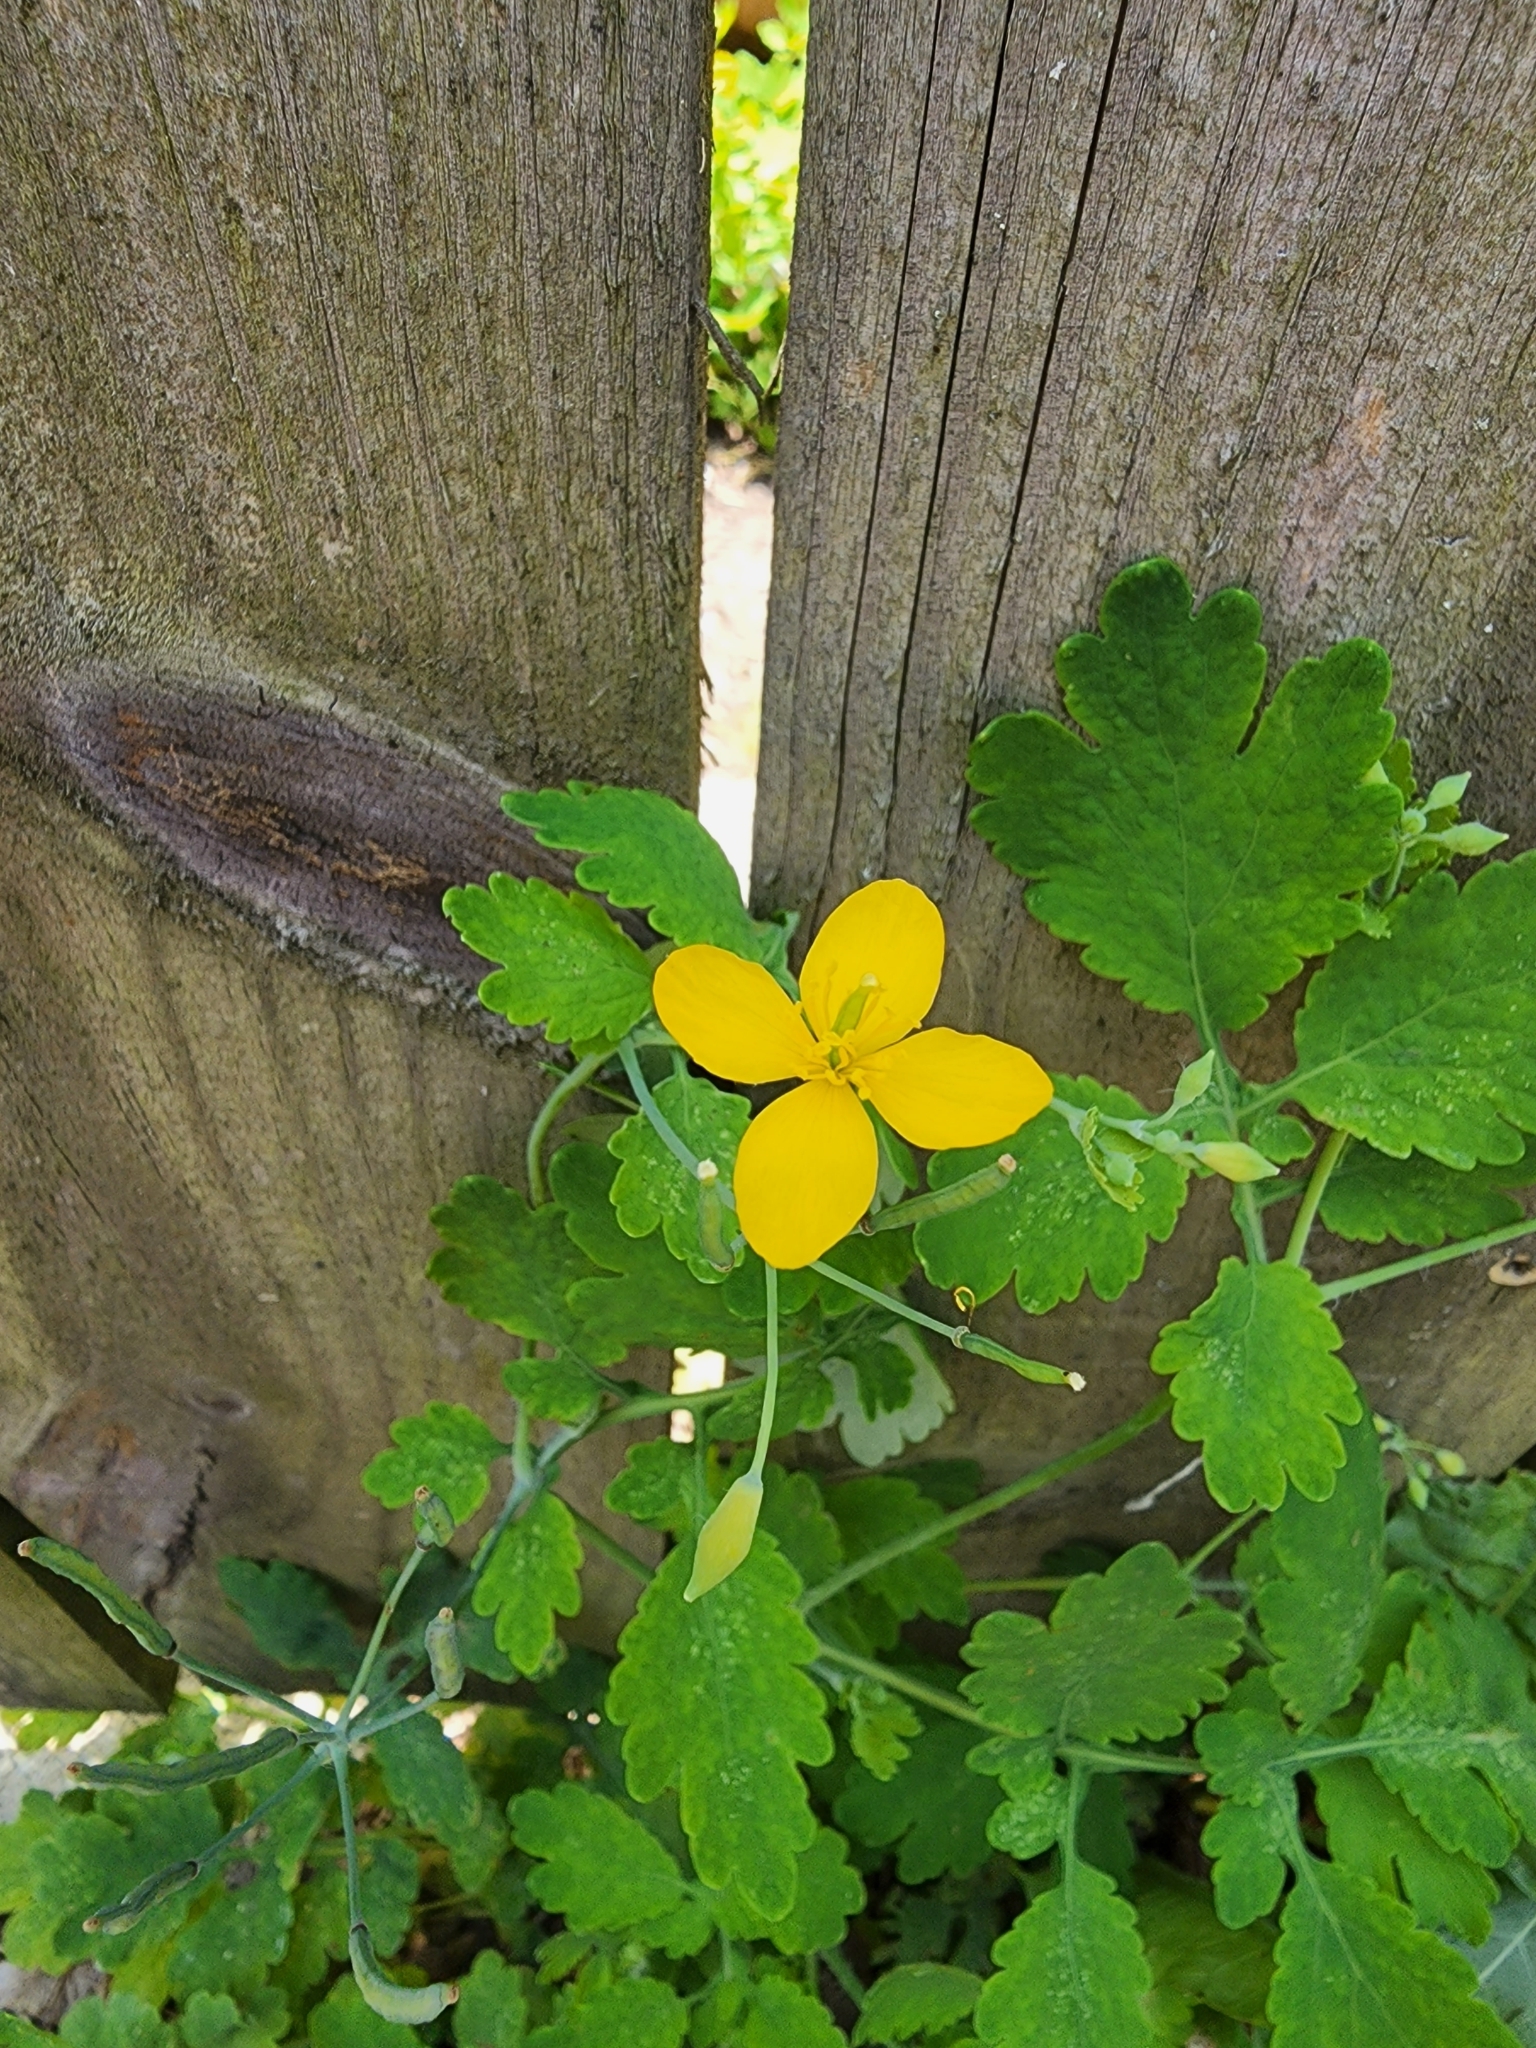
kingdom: Plantae
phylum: Tracheophyta
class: Magnoliopsida
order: Ranunculales
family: Papaveraceae
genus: Chelidonium
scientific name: Chelidonium majus
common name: Greater celandine
